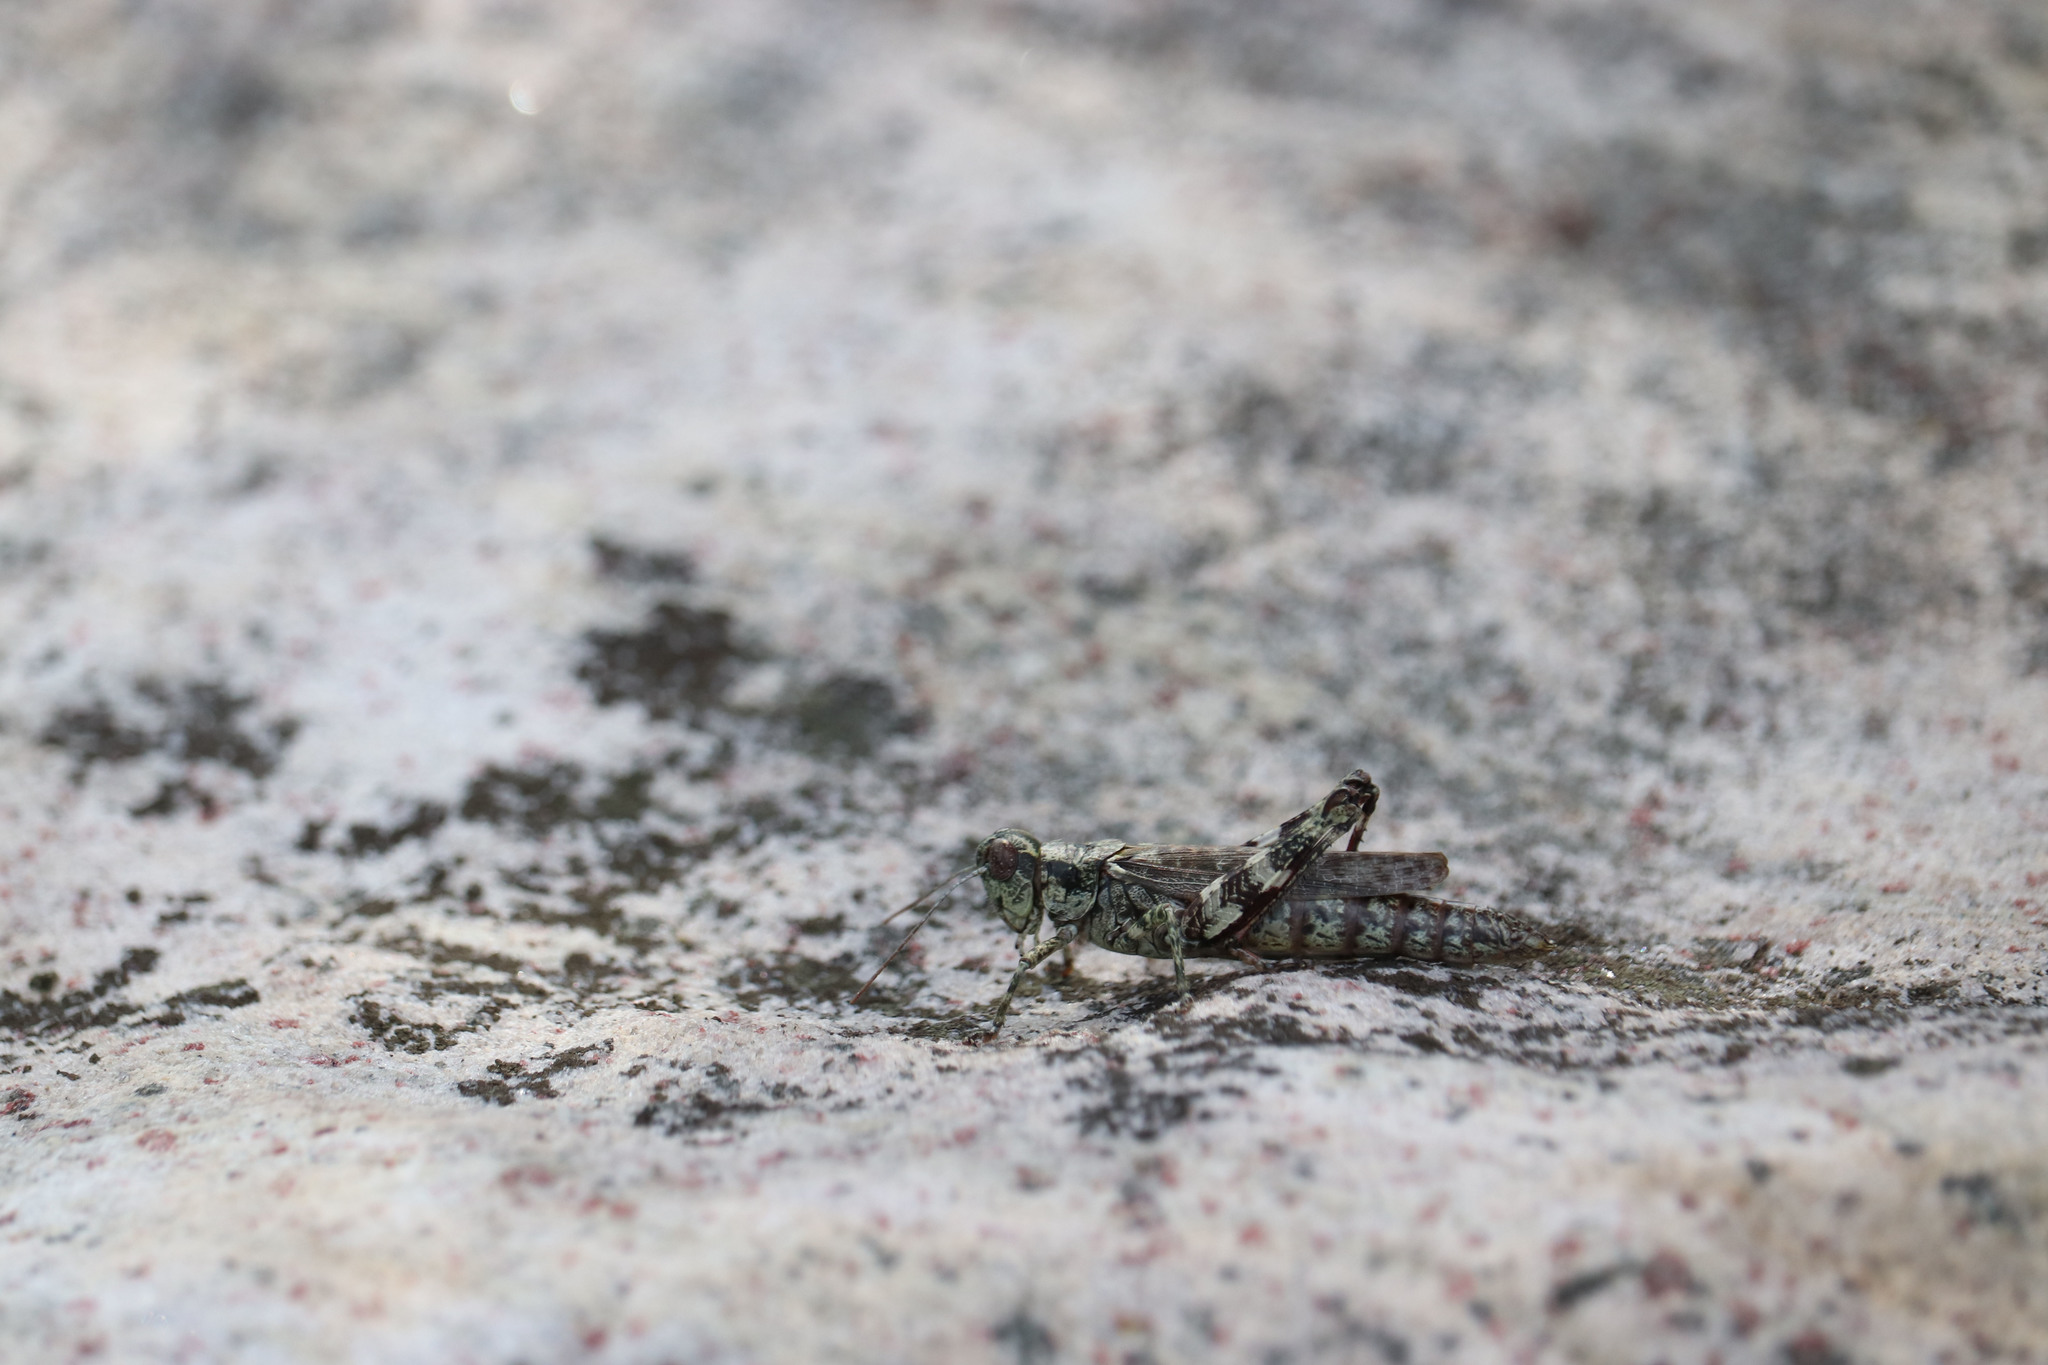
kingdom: Animalia
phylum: Arthropoda
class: Insecta
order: Orthoptera
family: Acrididae
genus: Melanoplus
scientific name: Melanoplus punctulatus
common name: Pine-tree spur-throat grasshopper
